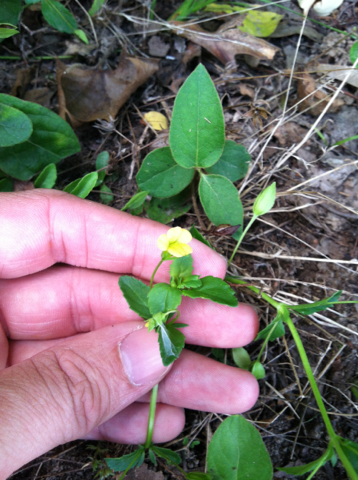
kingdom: Plantae
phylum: Tracheophyta
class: Magnoliopsida
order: Lamiales
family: Plantaginaceae
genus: Mecardonia
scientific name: Mecardonia procumbens
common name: Baby jump-up
